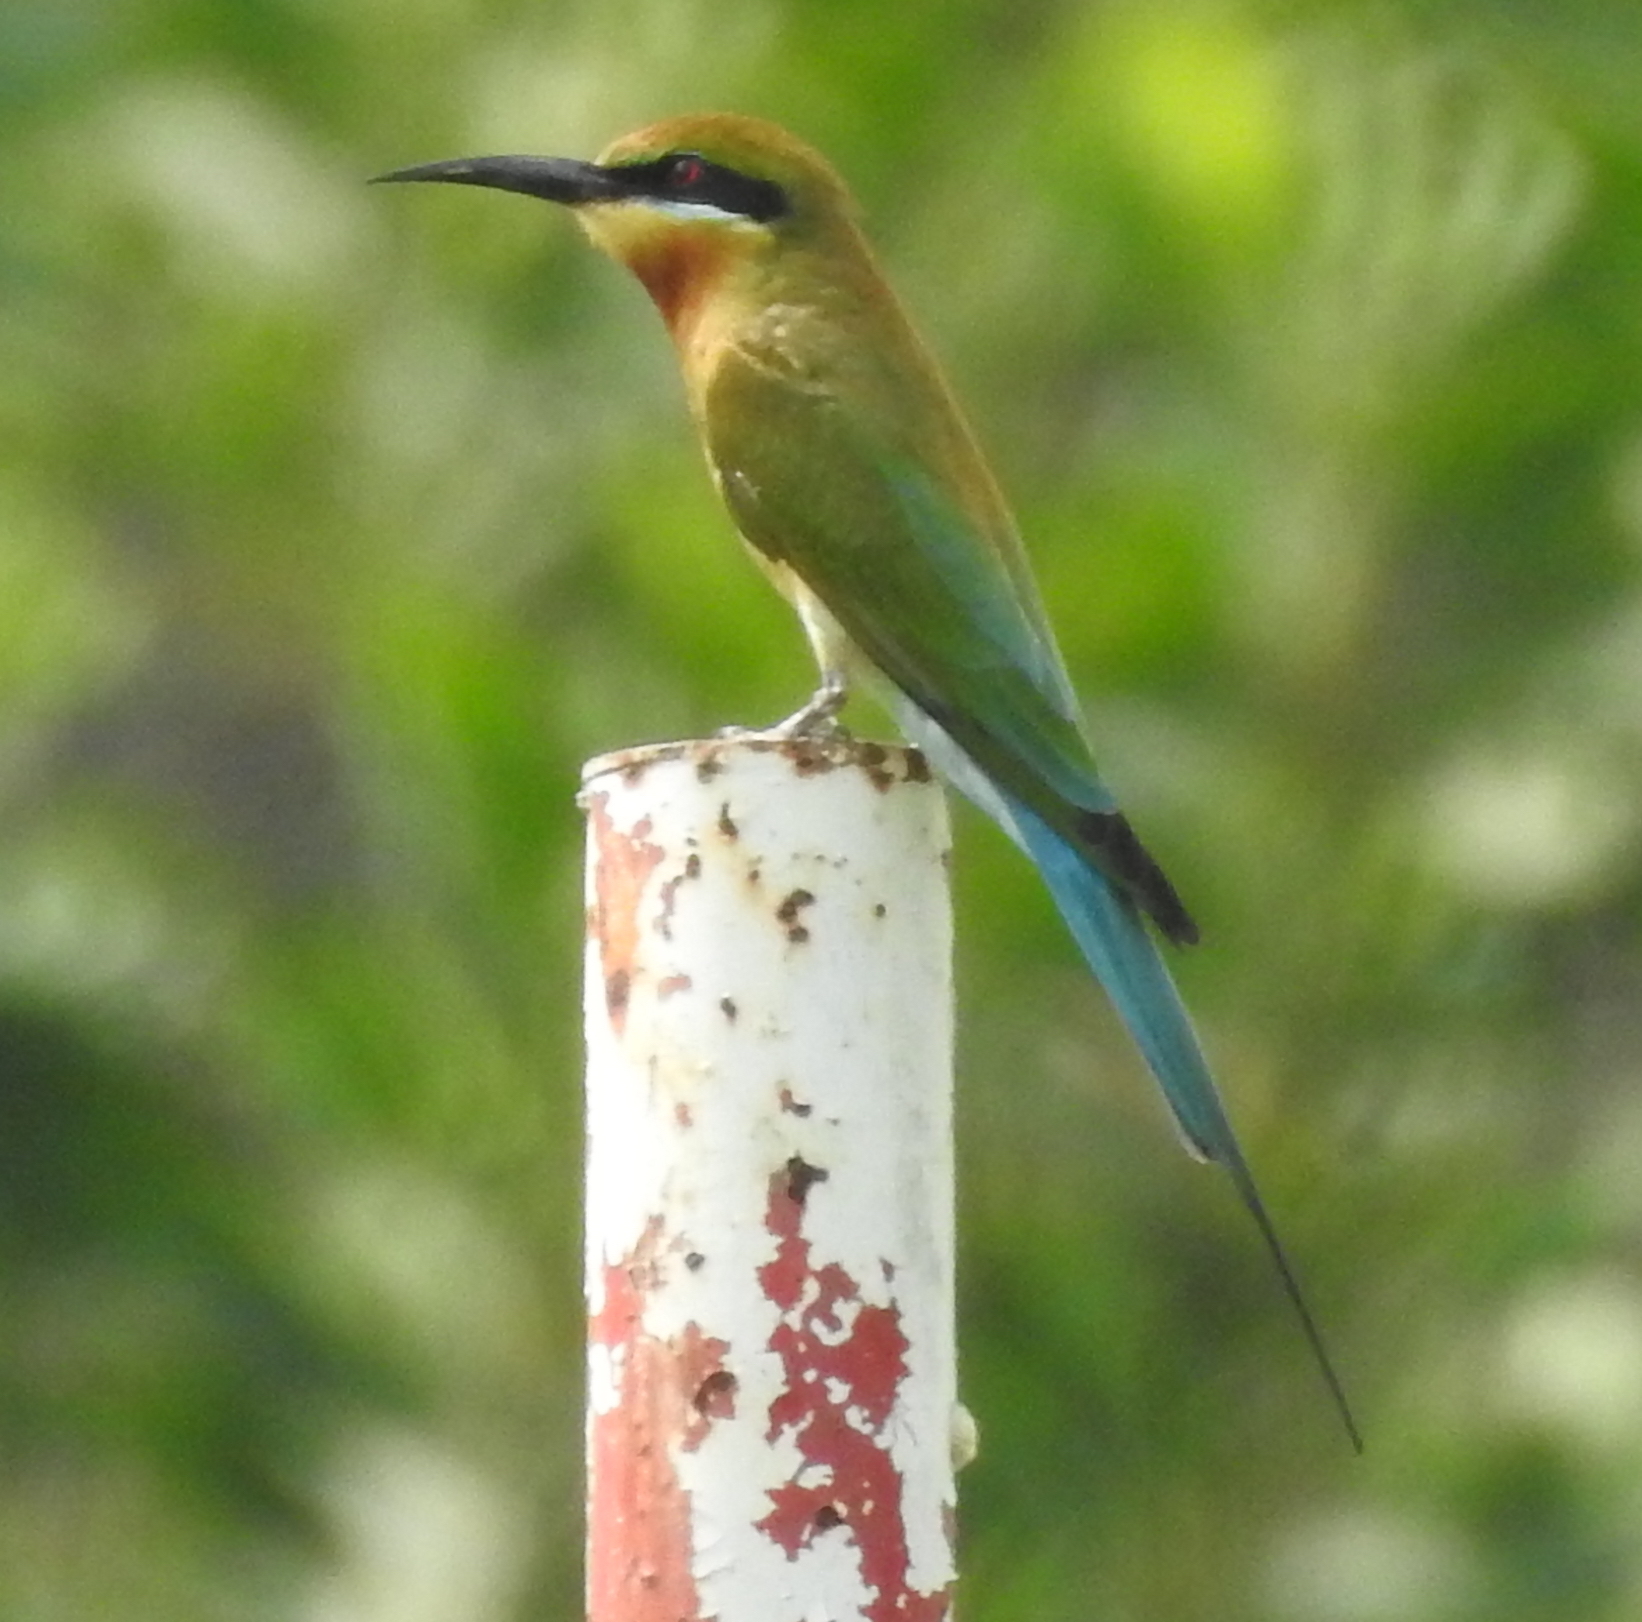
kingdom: Animalia
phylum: Chordata
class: Aves
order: Coraciiformes
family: Meropidae
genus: Merops
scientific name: Merops philippinus
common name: Blue-tailed bee-eater
